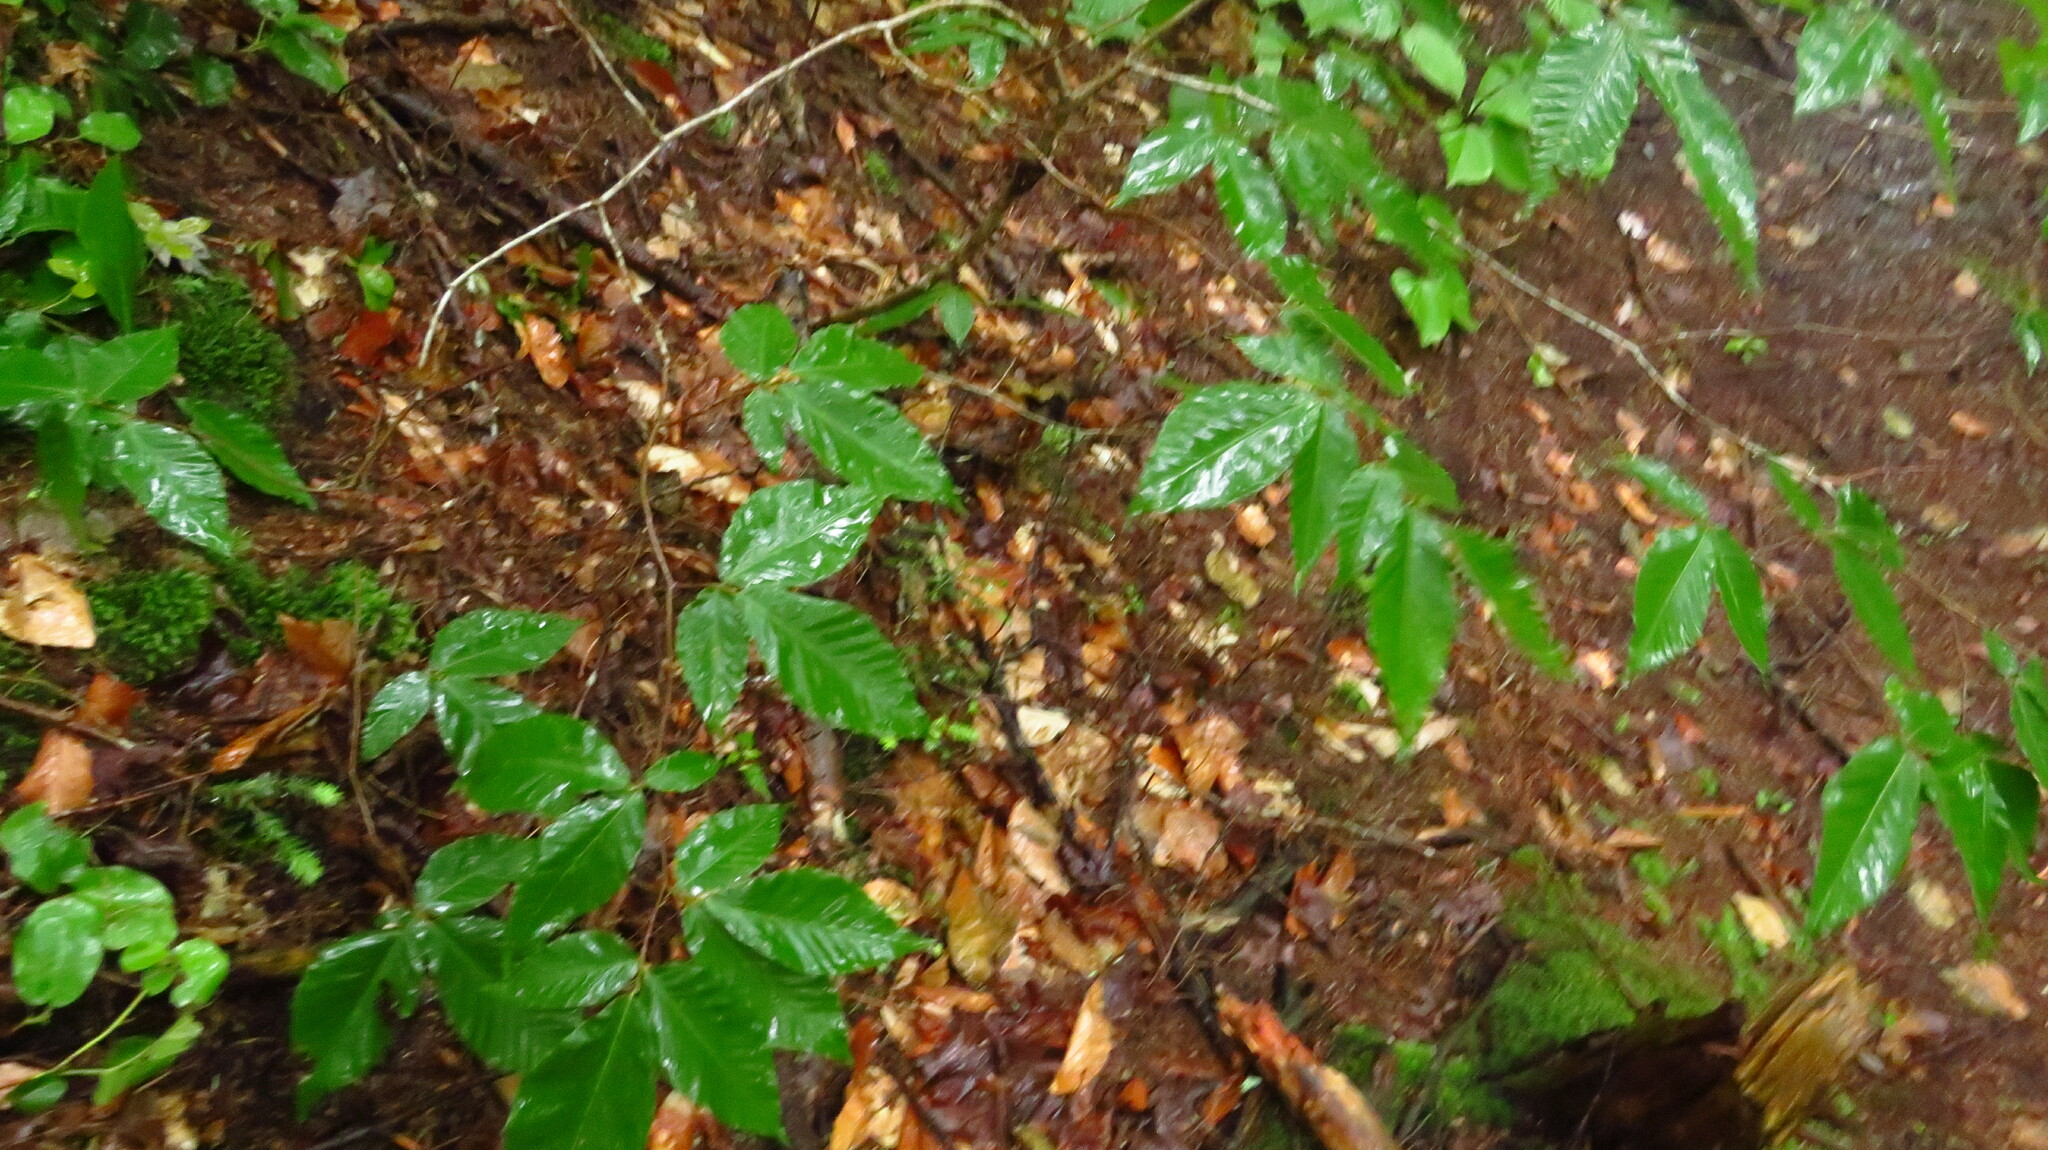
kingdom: Plantae
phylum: Tracheophyta
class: Magnoliopsida
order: Fagales
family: Fagaceae
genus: Fagus
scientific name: Fagus grandifolia
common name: American beech
